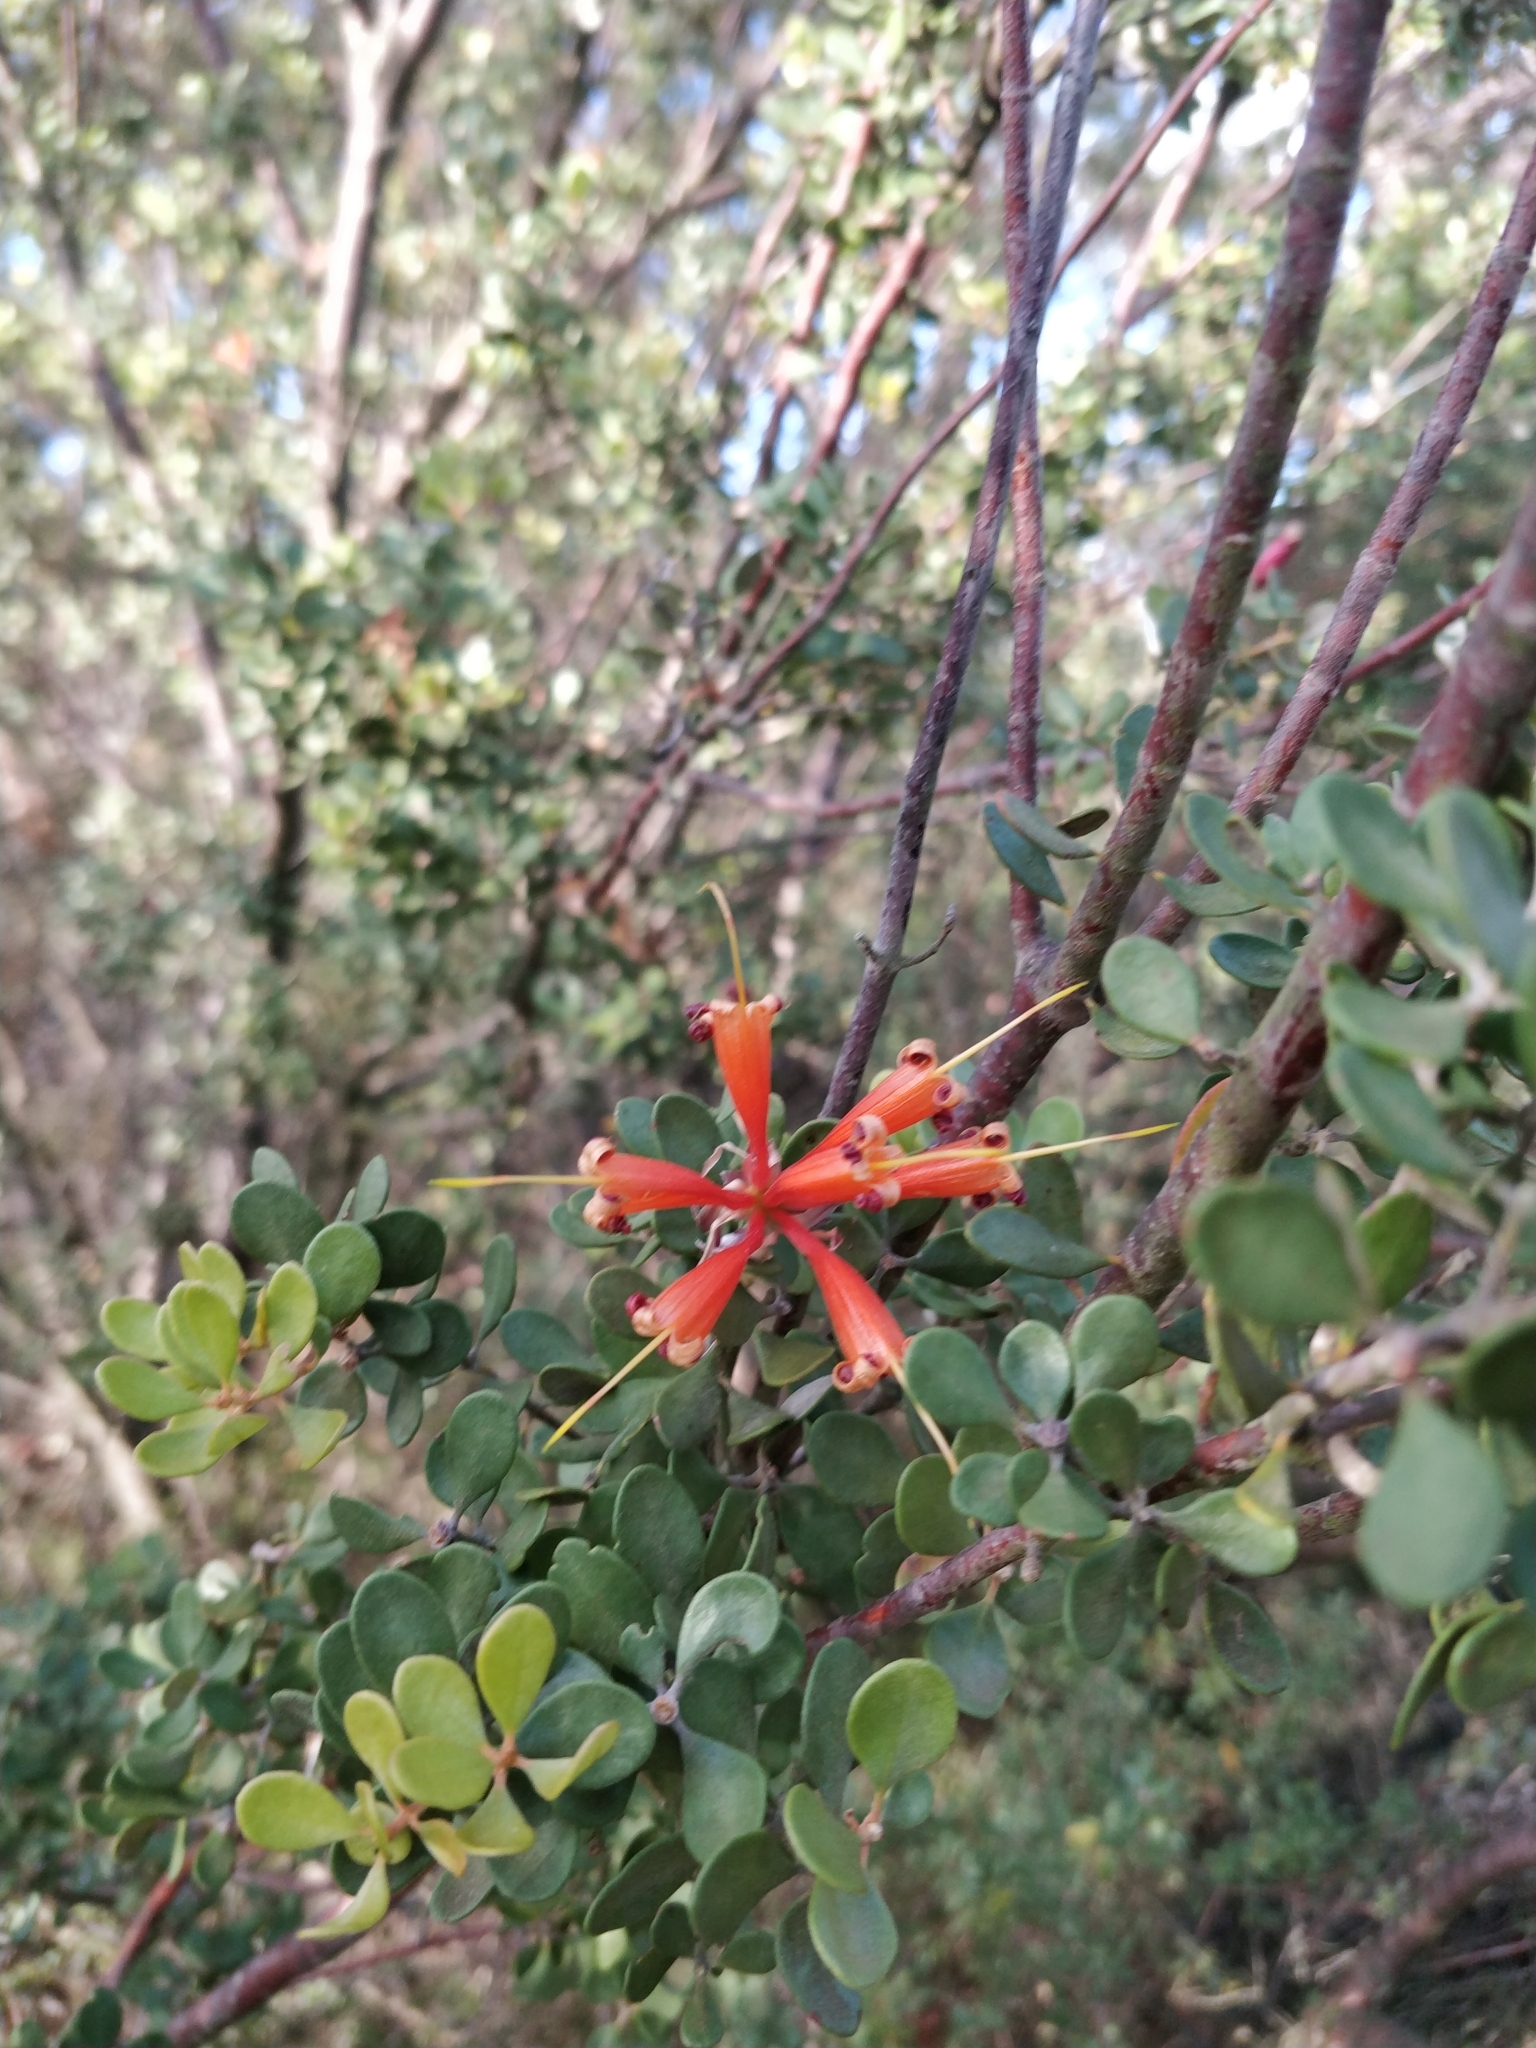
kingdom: Plantae
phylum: Tracheophyta
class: Magnoliopsida
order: Proteales
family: Proteaceae
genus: Lambertia
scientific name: Lambertia inermis
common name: Chittick
